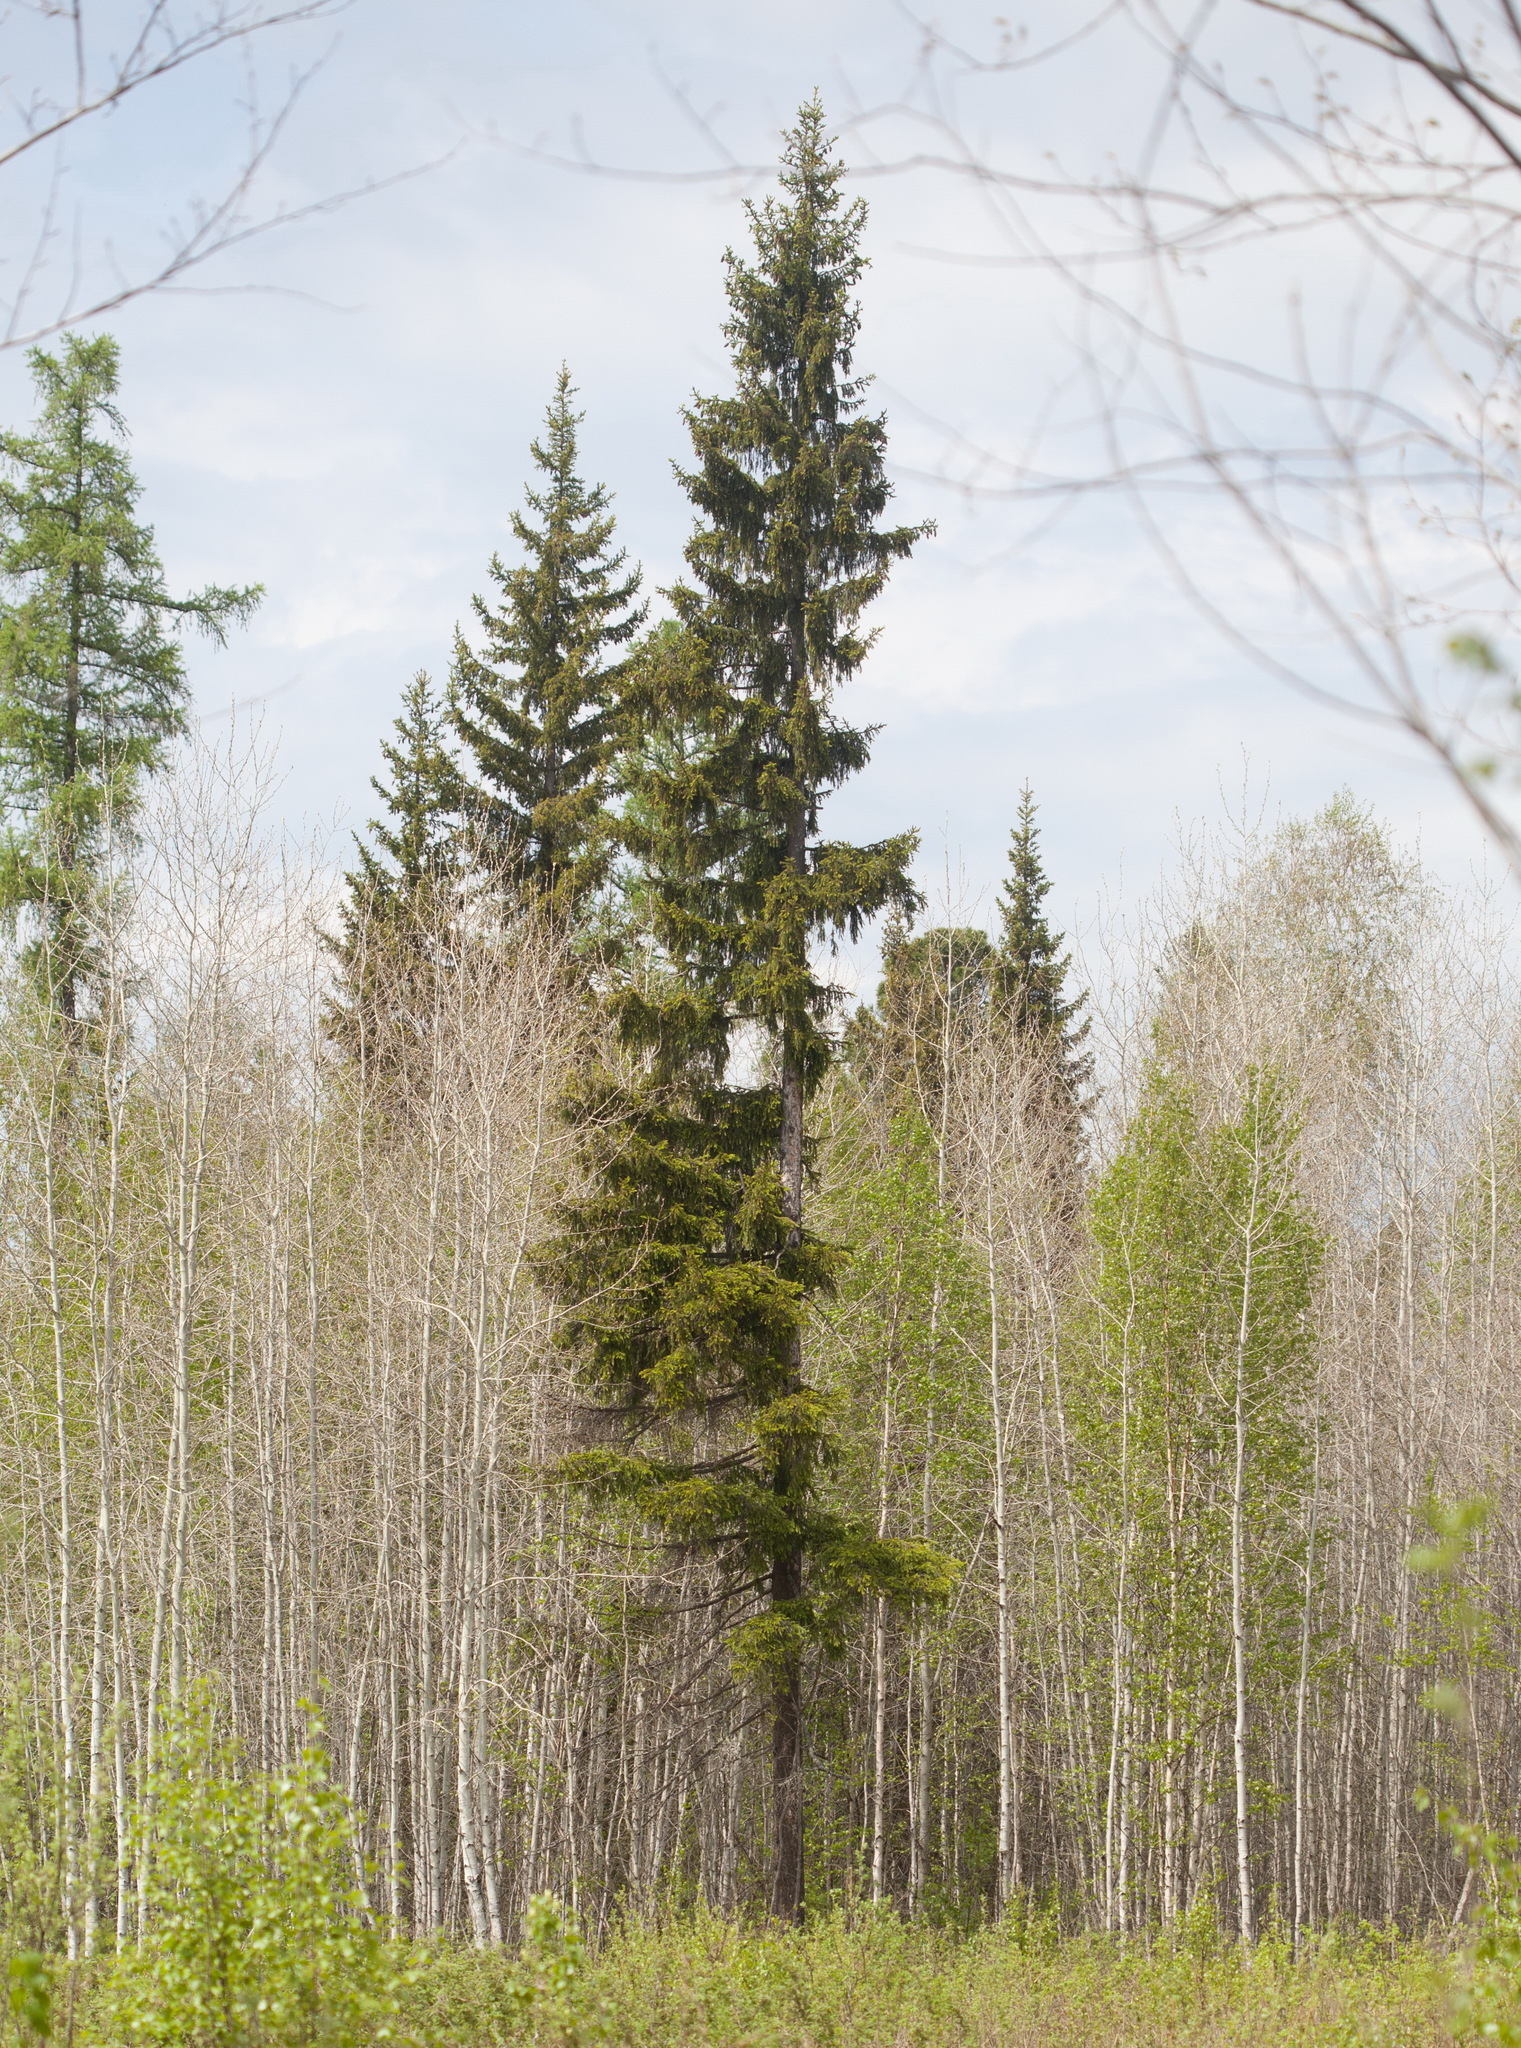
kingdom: Plantae
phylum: Tracheophyta
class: Pinopsida
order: Pinales
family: Pinaceae
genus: Picea
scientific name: Picea obovata
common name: Siberian spruce
